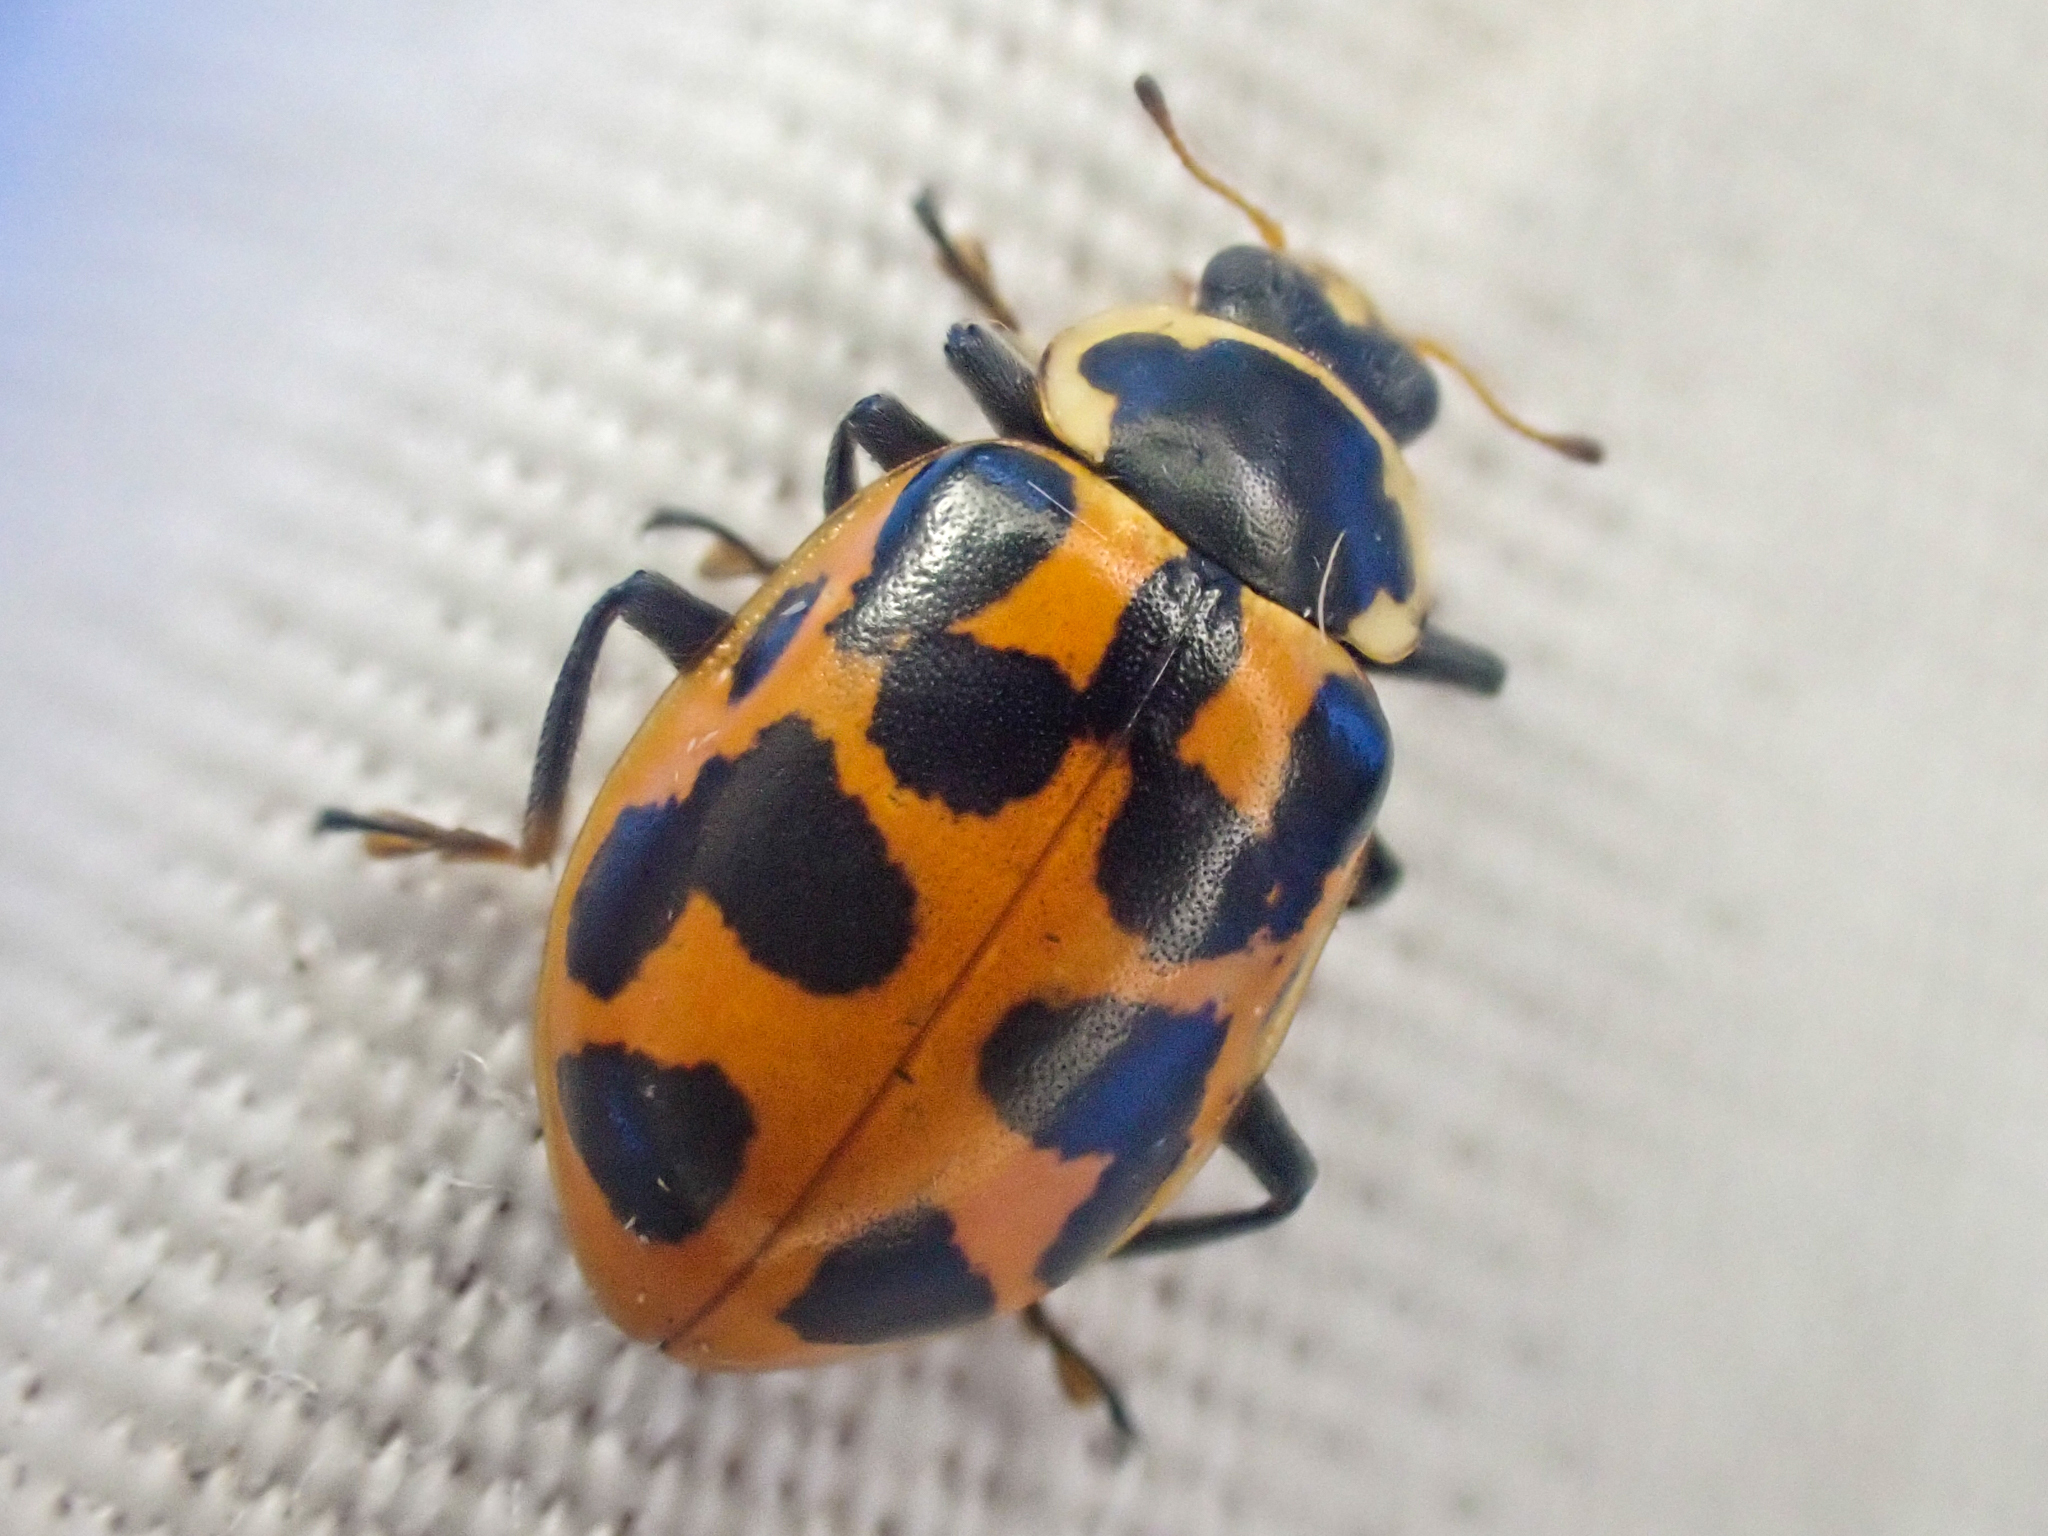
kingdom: Animalia
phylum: Arthropoda
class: Insecta
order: Coleoptera
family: Coccinellidae
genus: Hippodamia
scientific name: Hippodamia tredecimpunctata
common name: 13-spot ladybird
